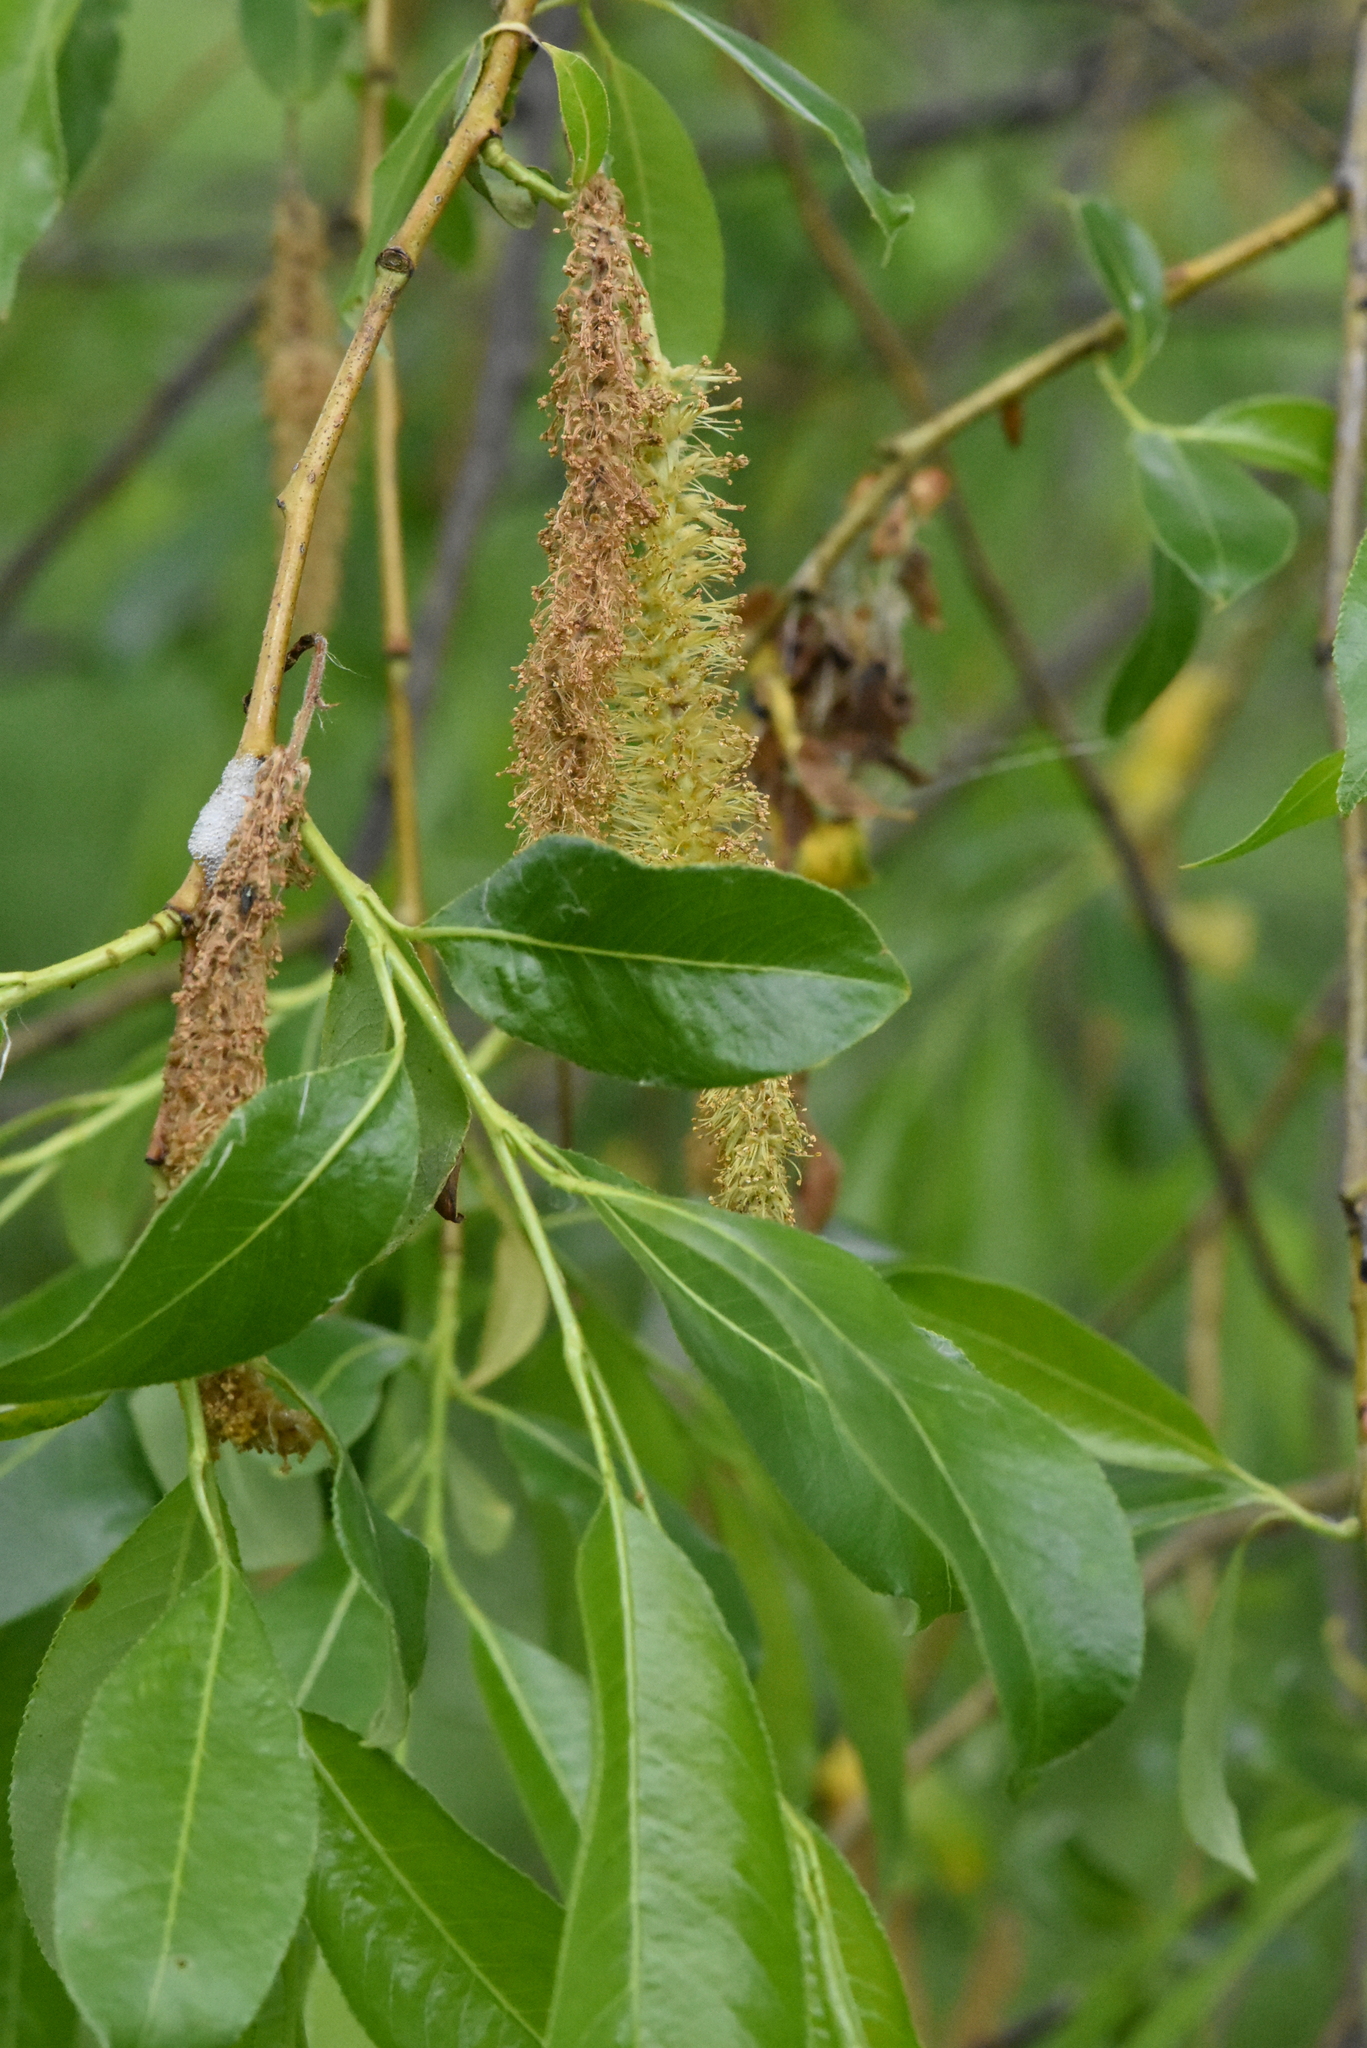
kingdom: Plantae
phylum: Tracheophyta
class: Magnoliopsida
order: Malpighiales
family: Salicaceae
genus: Salix
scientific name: Salix pentandra
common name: Bay willow
